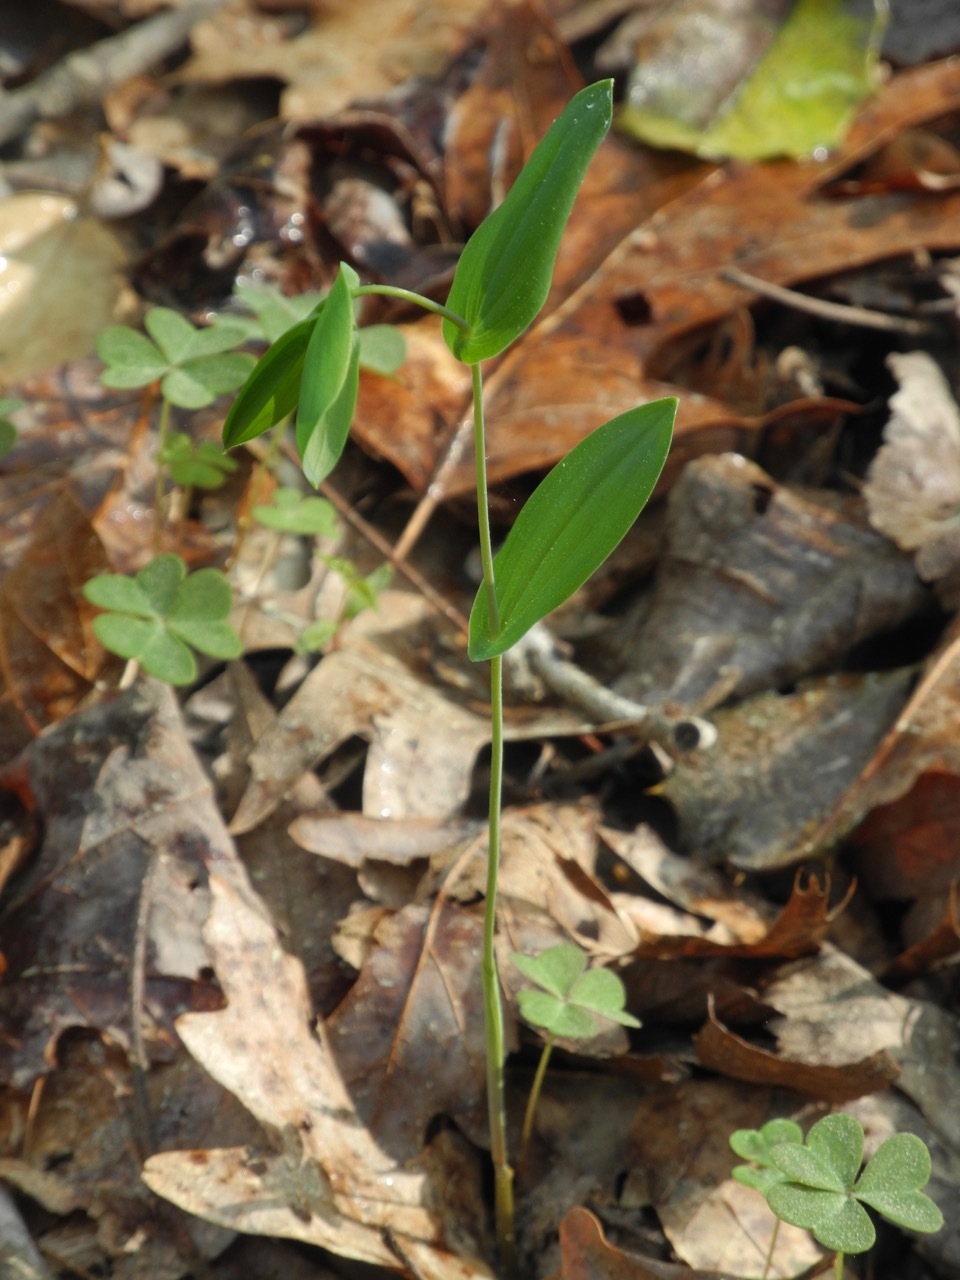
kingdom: Plantae
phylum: Tracheophyta
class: Liliopsida
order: Liliales
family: Colchicaceae
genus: Uvularia
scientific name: Uvularia perfoliata
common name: Perfoliate bellwort
